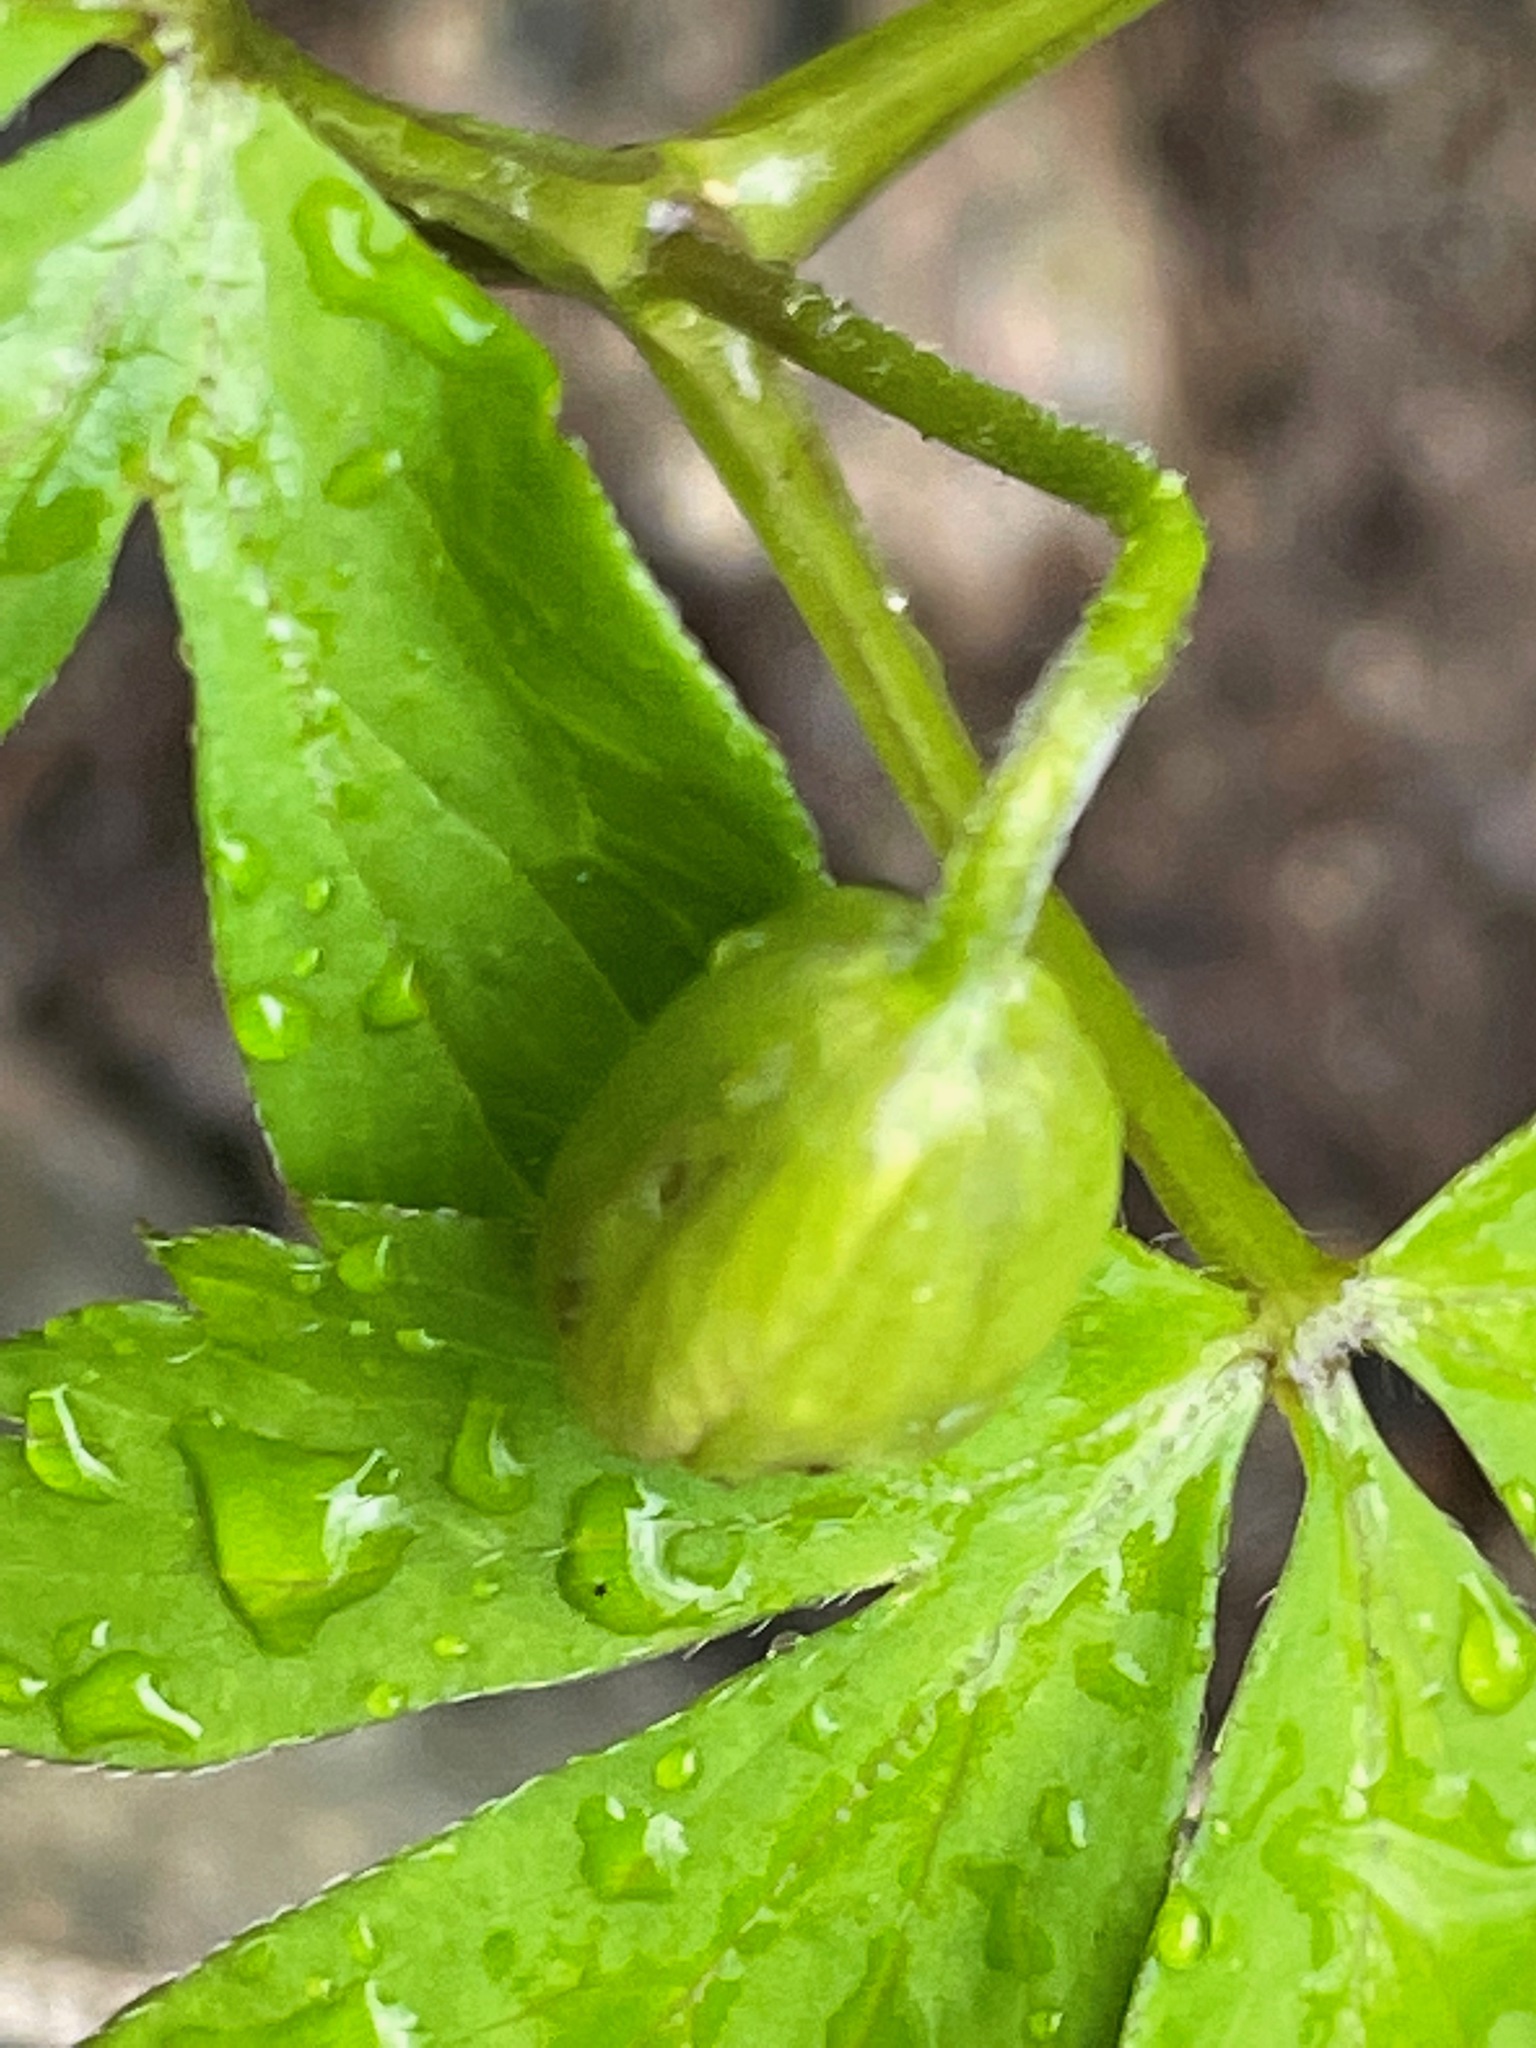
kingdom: Plantae
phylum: Tracheophyta
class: Magnoliopsida
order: Ranunculales
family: Ranunculaceae
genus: Anemone
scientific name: Anemone quinquefolia
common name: Wood anemone
